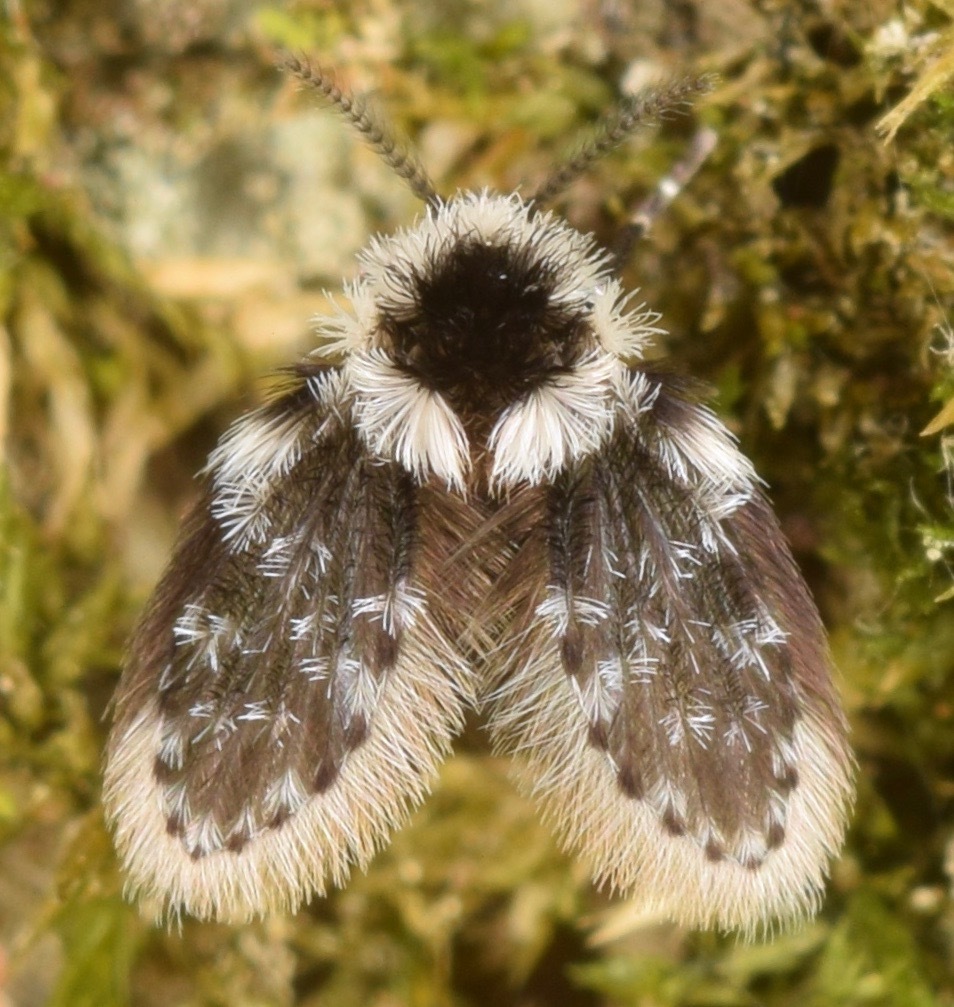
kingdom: Animalia
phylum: Arthropoda
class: Insecta
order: Diptera
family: Psychodidae
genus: Lepiseodina
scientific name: Lepiseodina
